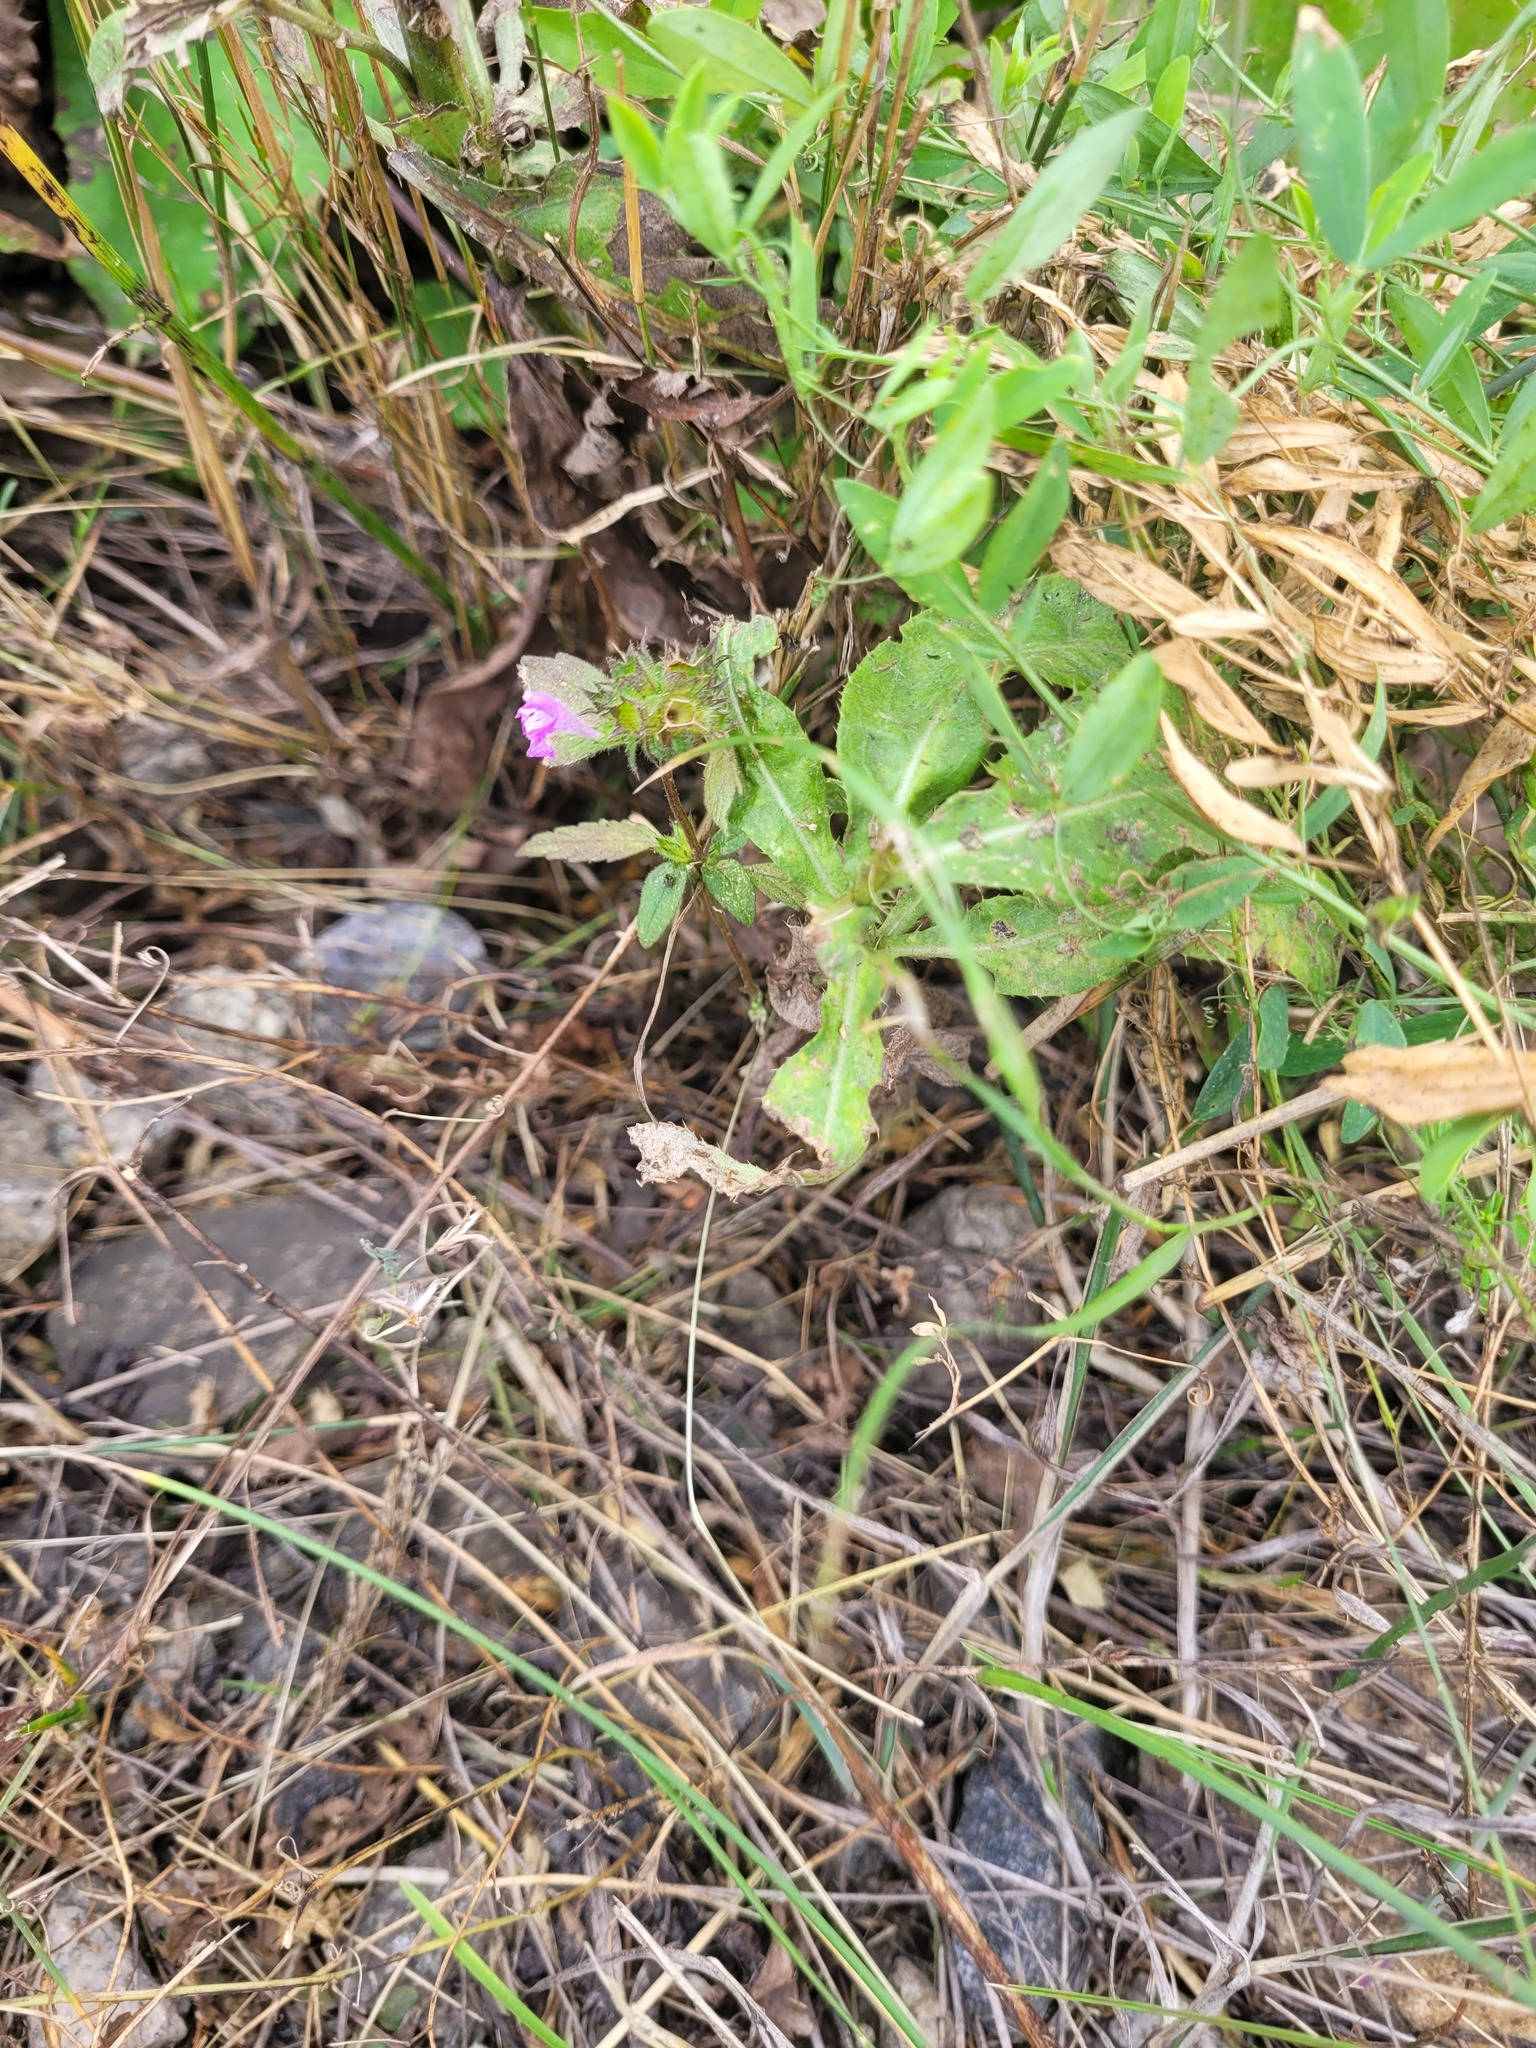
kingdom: Plantae
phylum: Tracheophyta
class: Magnoliopsida
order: Lamiales
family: Lamiaceae
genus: Galeopsis
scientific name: Galeopsis ladanum
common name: Broad-leaved hemp-nettle
